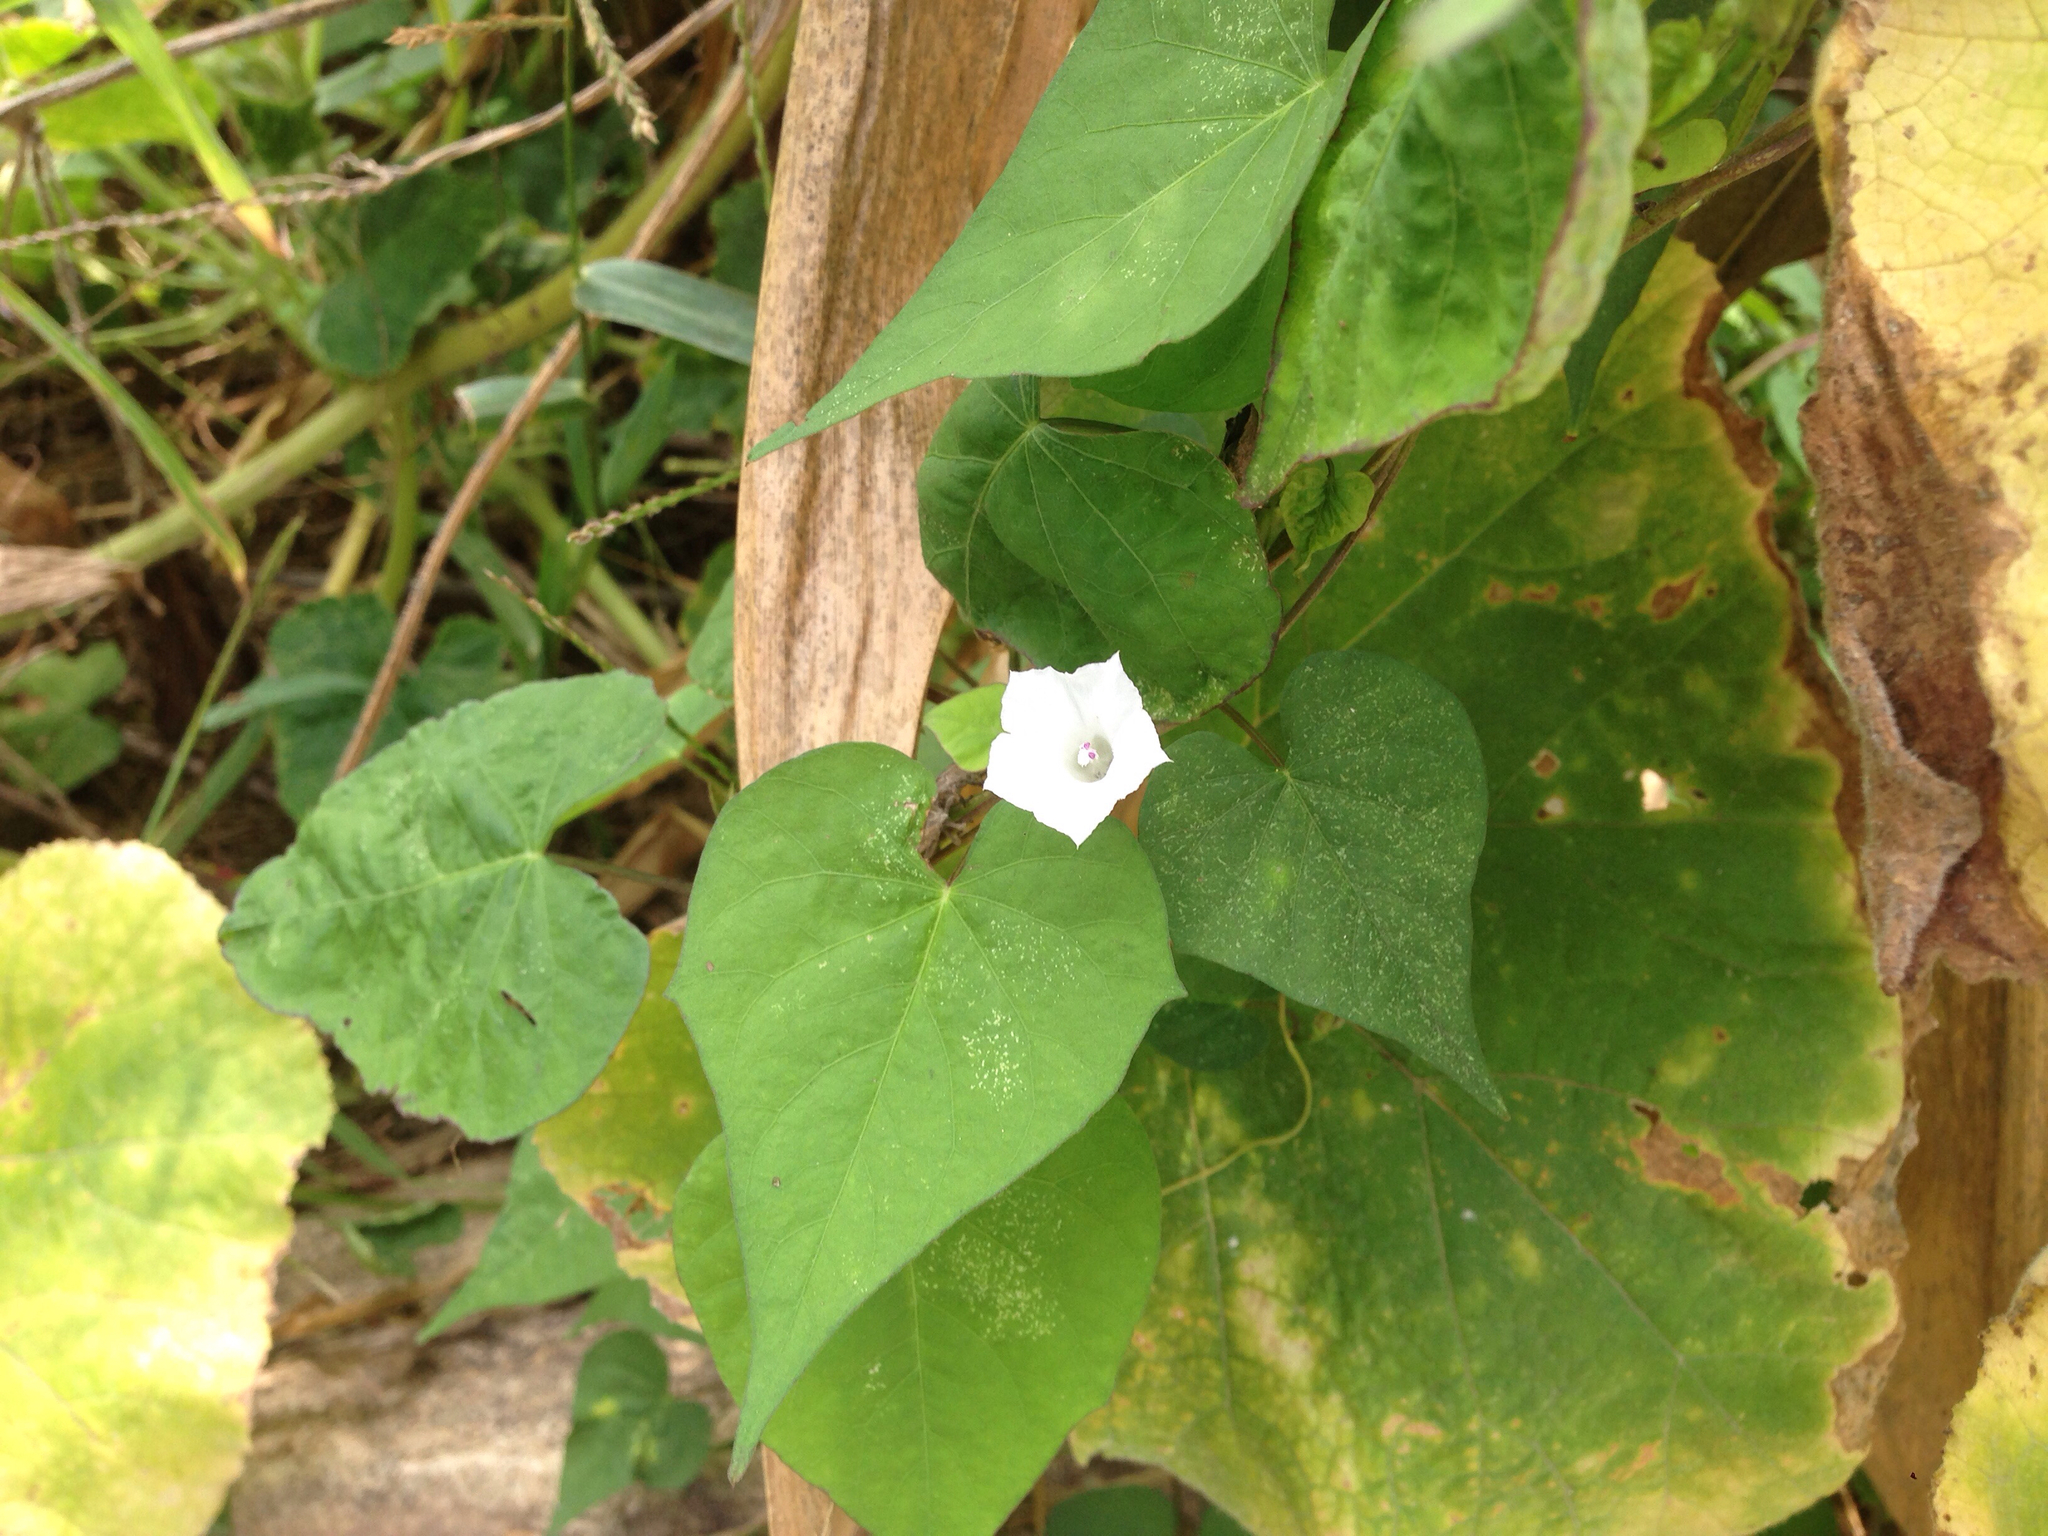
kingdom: Plantae
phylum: Tracheophyta
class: Magnoliopsida
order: Solanales
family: Convolvulaceae
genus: Ipomoea
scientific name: Ipomoea lacunosa
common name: White morning-glory
